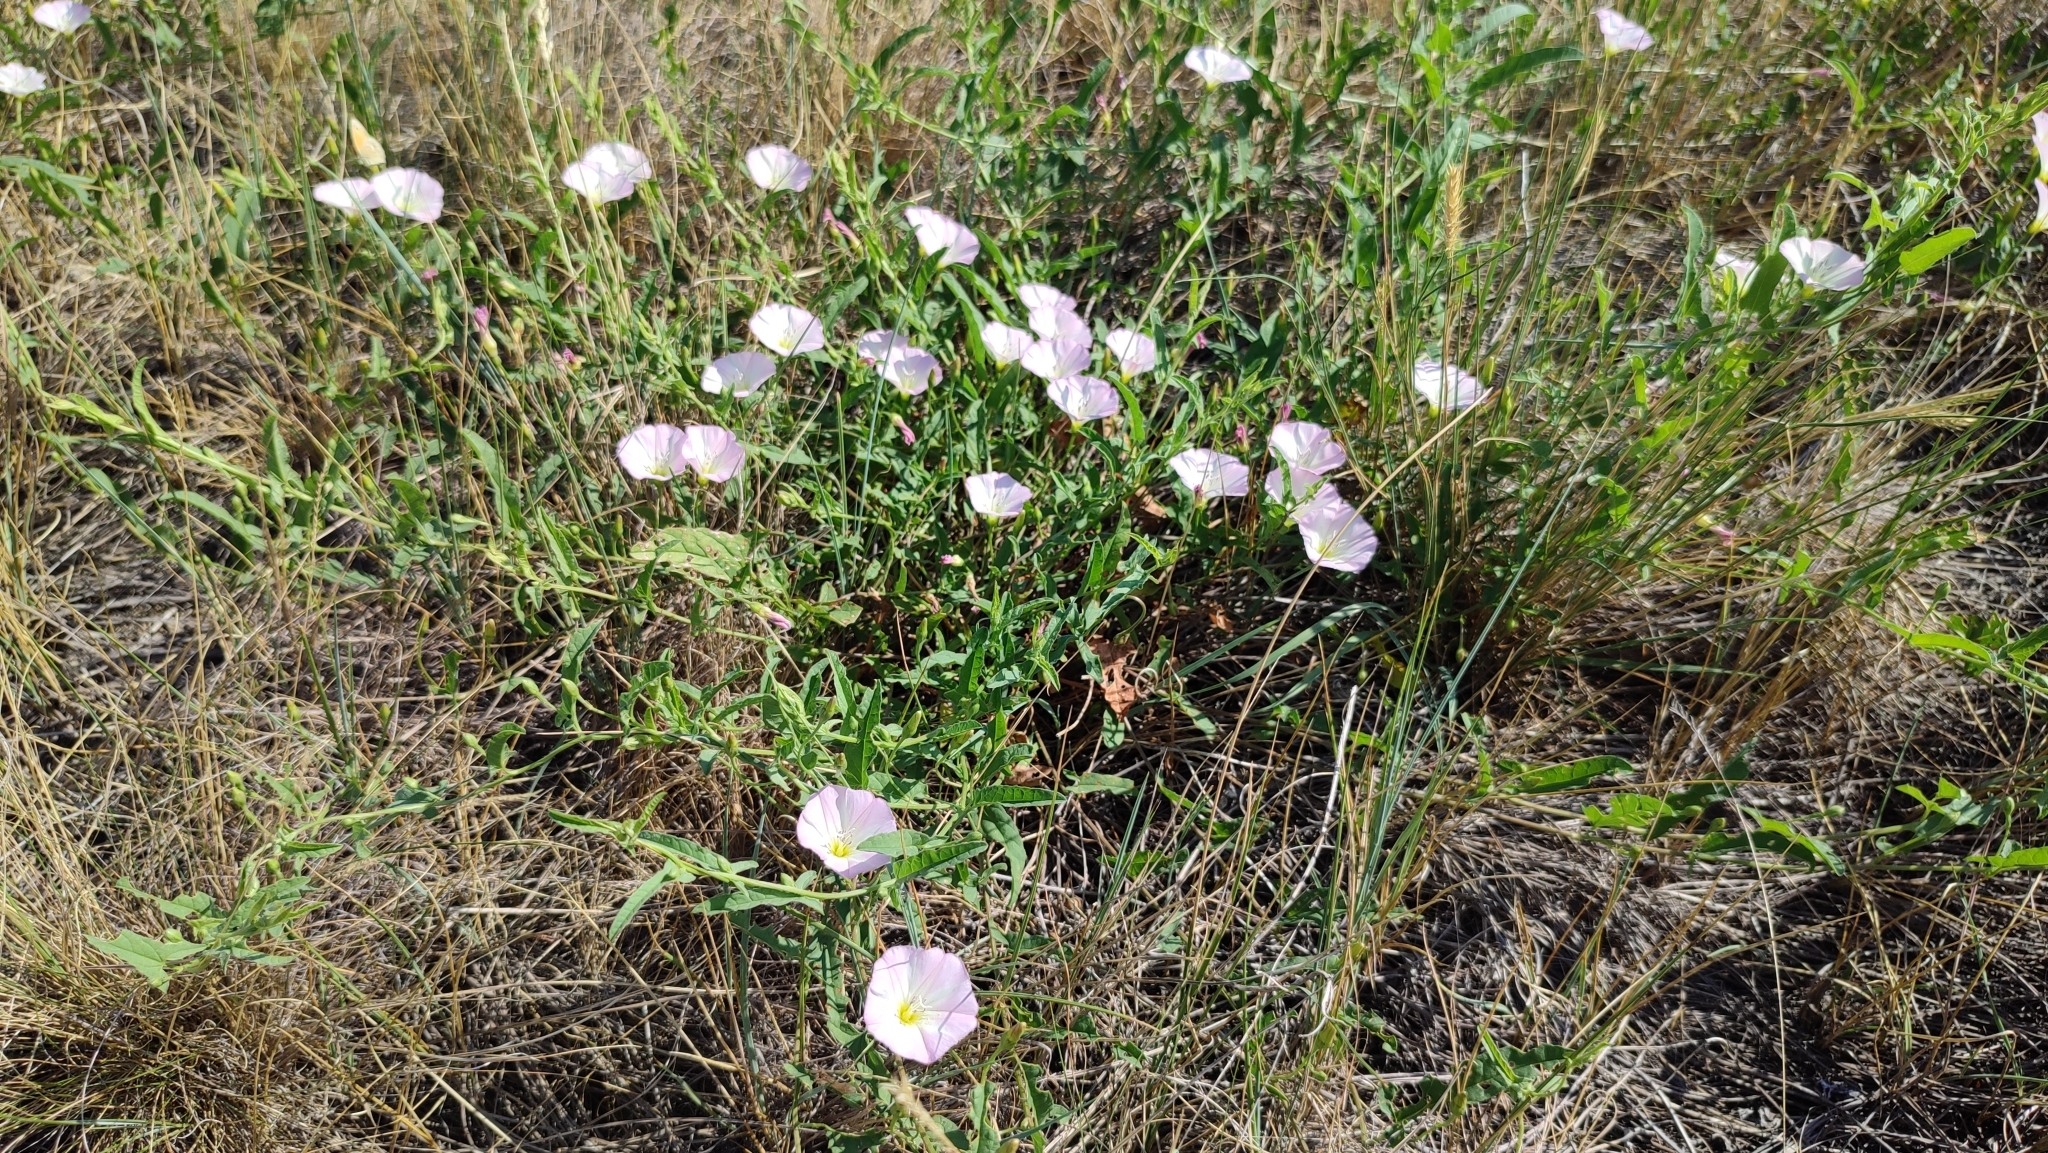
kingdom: Plantae
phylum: Tracheophyta
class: Magnoliopsida
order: Solanales
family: Convolvulaceae
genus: Convolvulus
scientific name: Convolvulus arvensis
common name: Field bindweed
